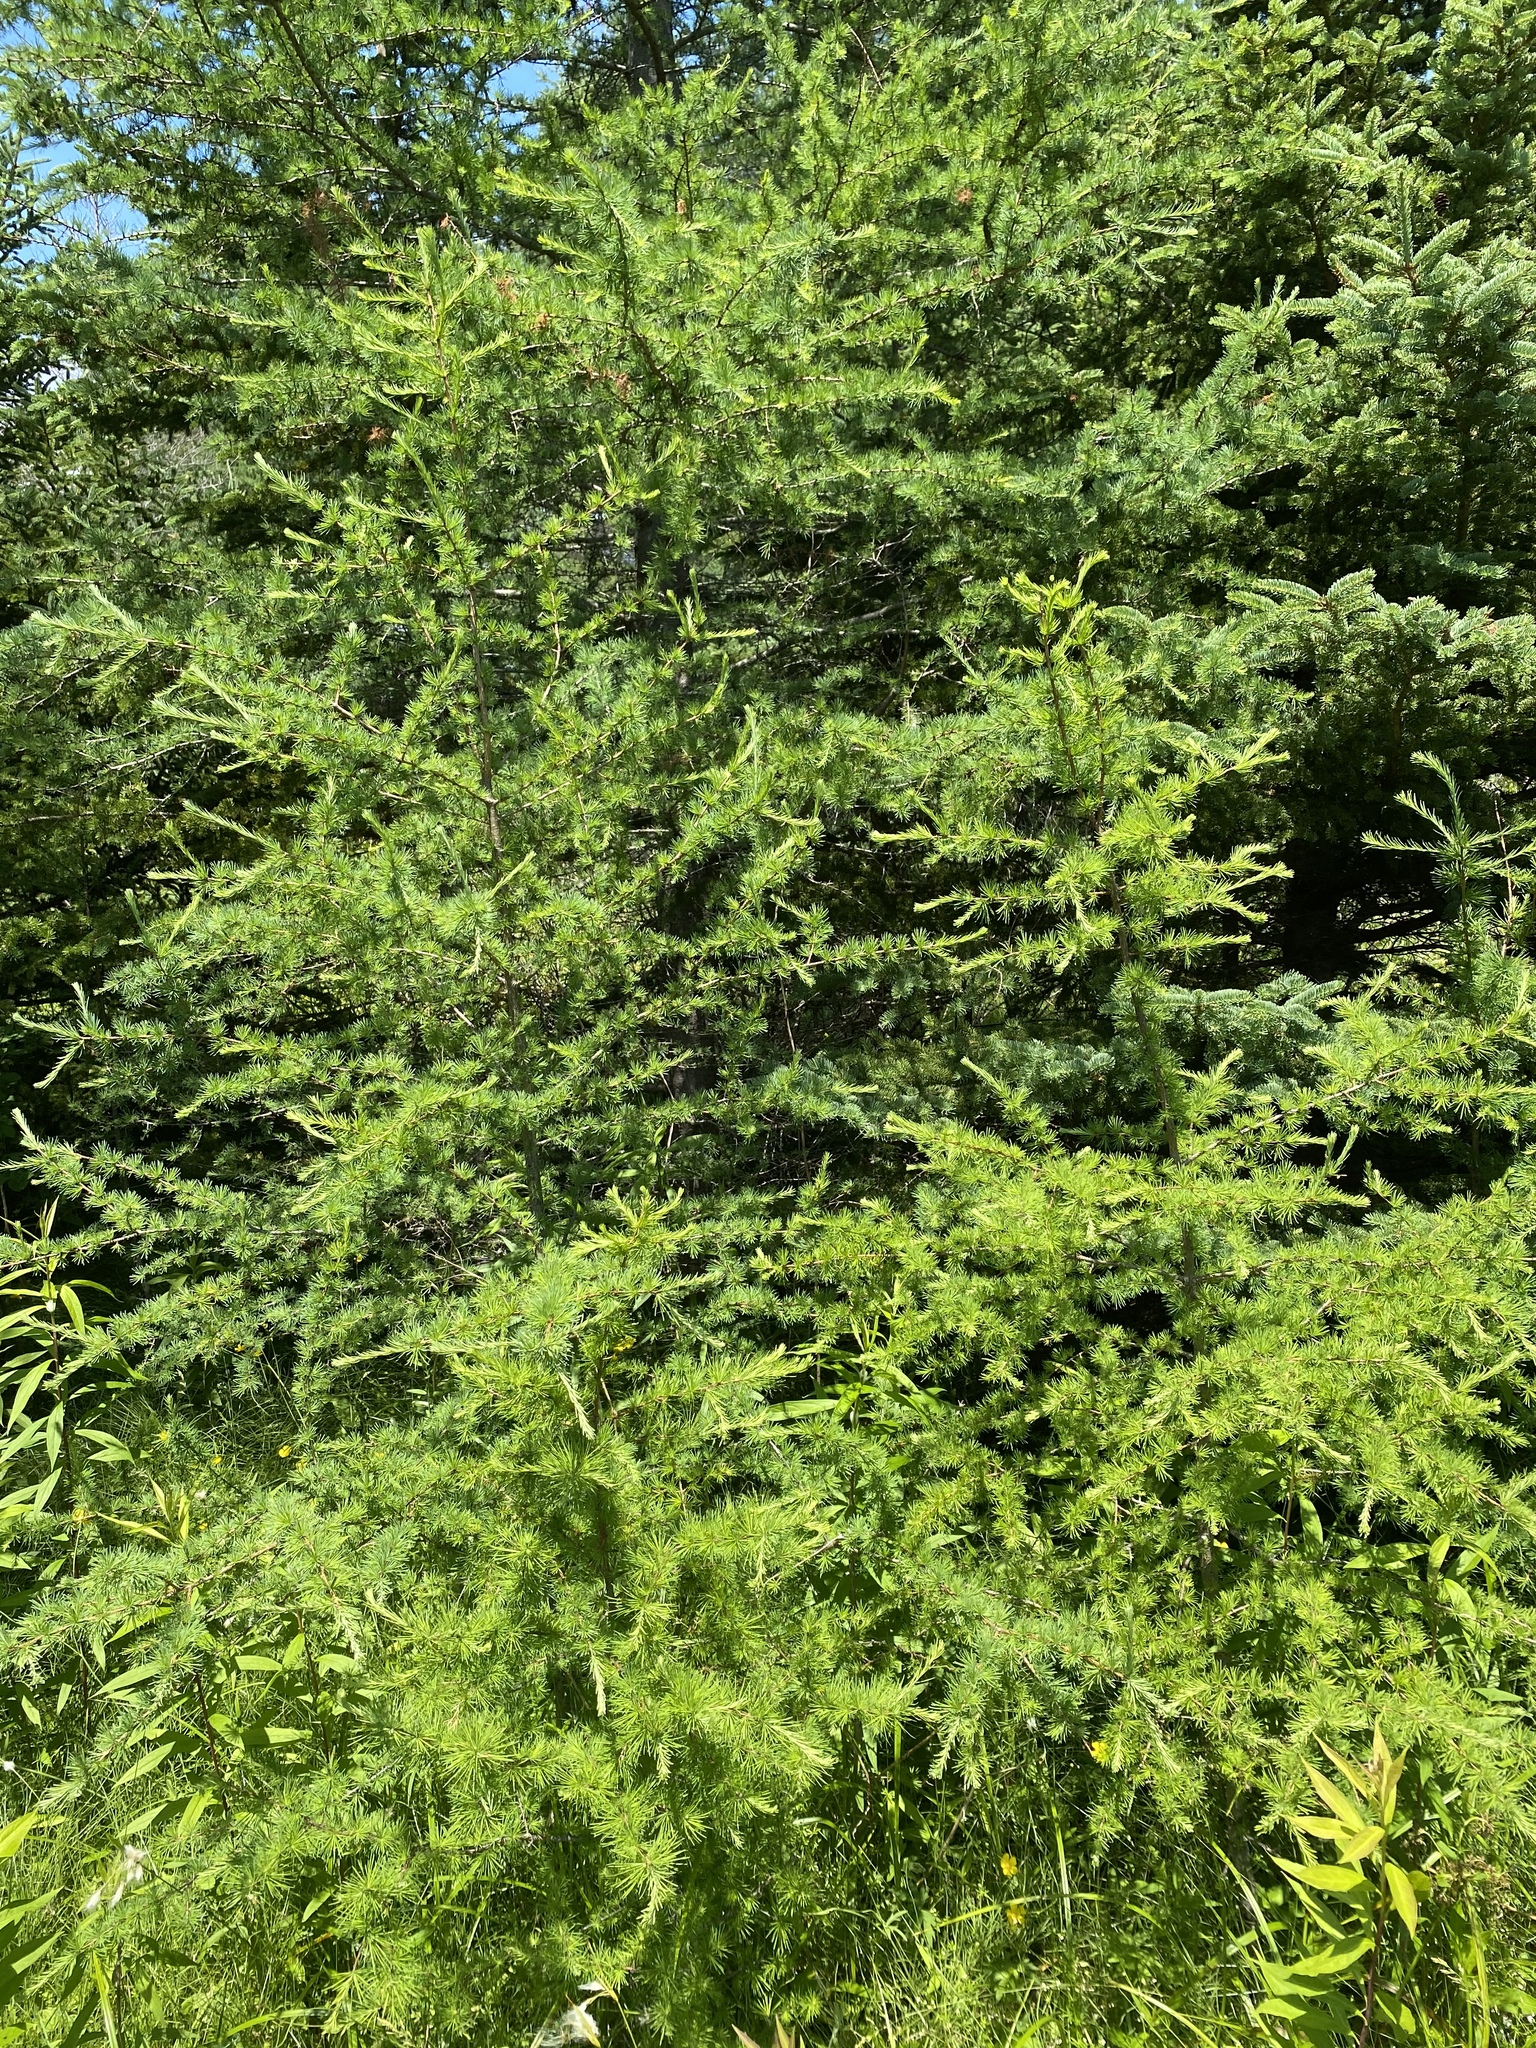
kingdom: Plantae
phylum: Tracheophyta
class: Pinopsida
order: Pinales
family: Pinaceae
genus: Larix
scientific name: Larix laricina
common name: American larch
